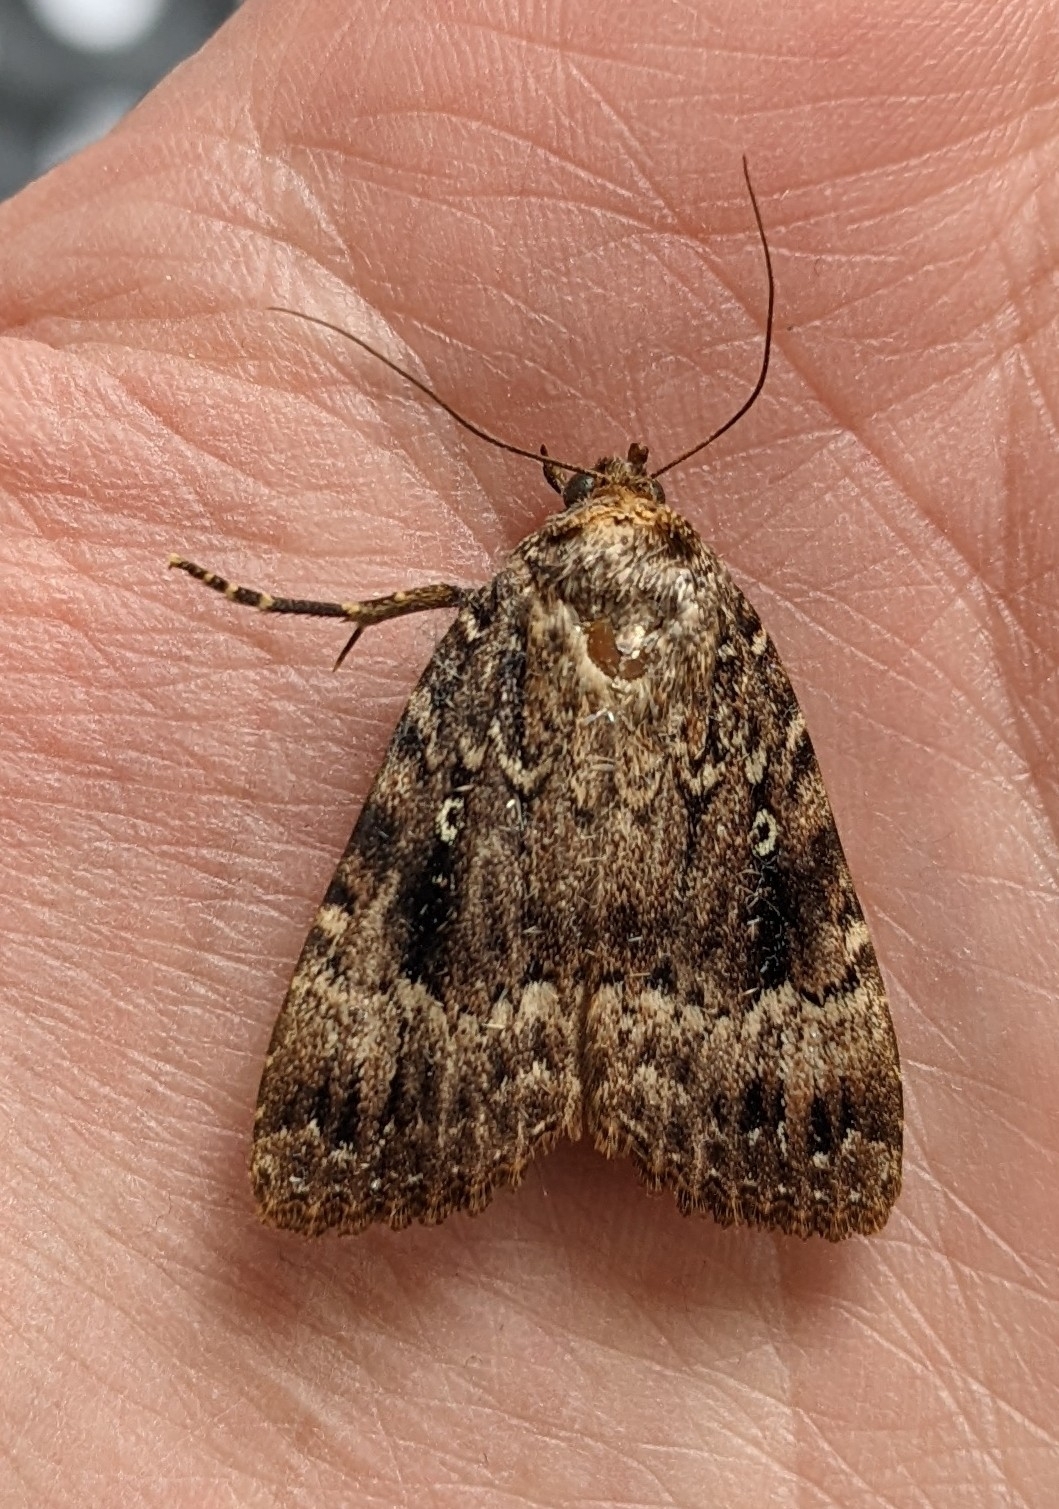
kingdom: Animalia
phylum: Arthropoda
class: Insecta
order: Lepidoptera
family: Noctuidae
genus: Amphipyra
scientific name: Amphipyra pyramidea
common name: Copper underwing
